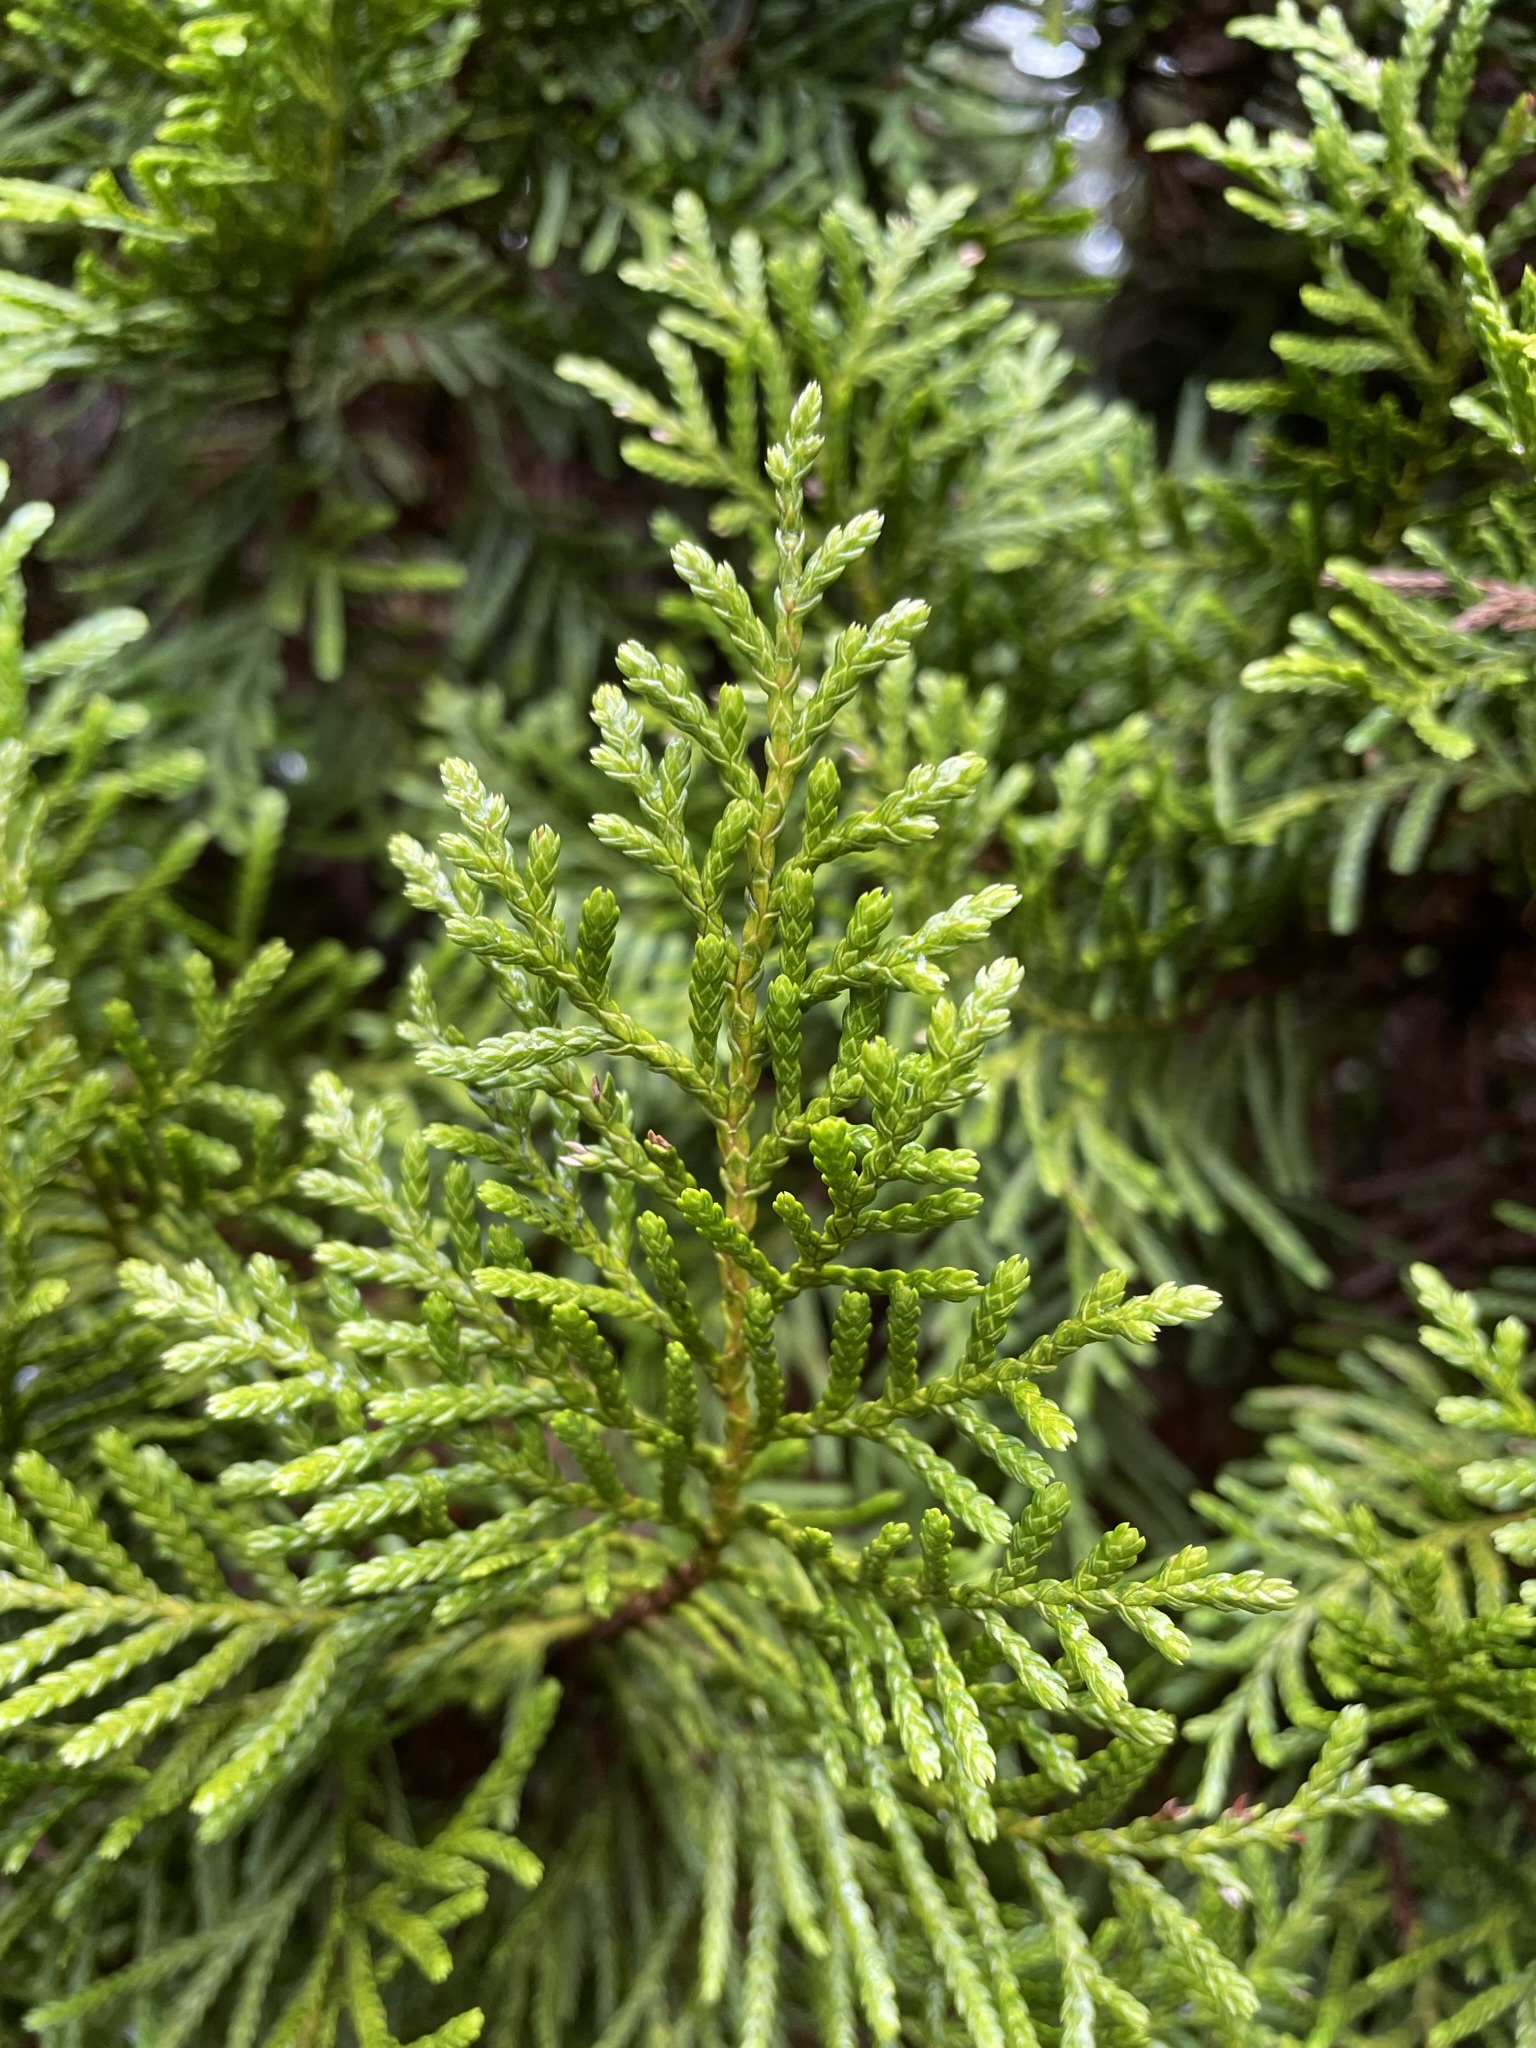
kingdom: Plantae
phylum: Tracheophyta
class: Pinopsida
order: Pinales
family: Cupressaceae
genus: Libocedrus
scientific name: Libocedrus bidwillii
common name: Cedar
